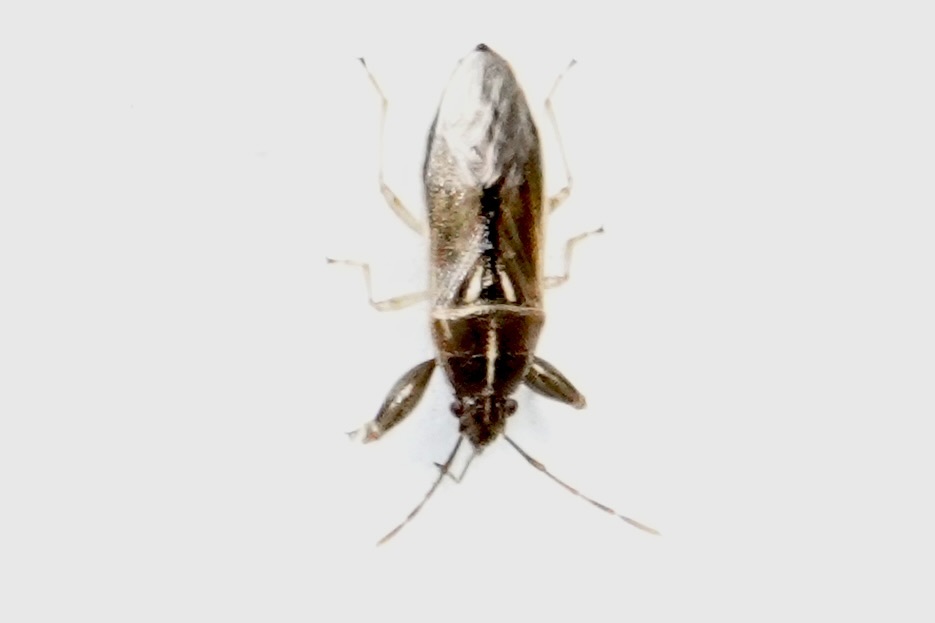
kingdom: Animalia
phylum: Arthropoda
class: Insecta
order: Hemiptera
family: Pachygronthidae
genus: Oedancala
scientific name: Oedancala dorsalis
